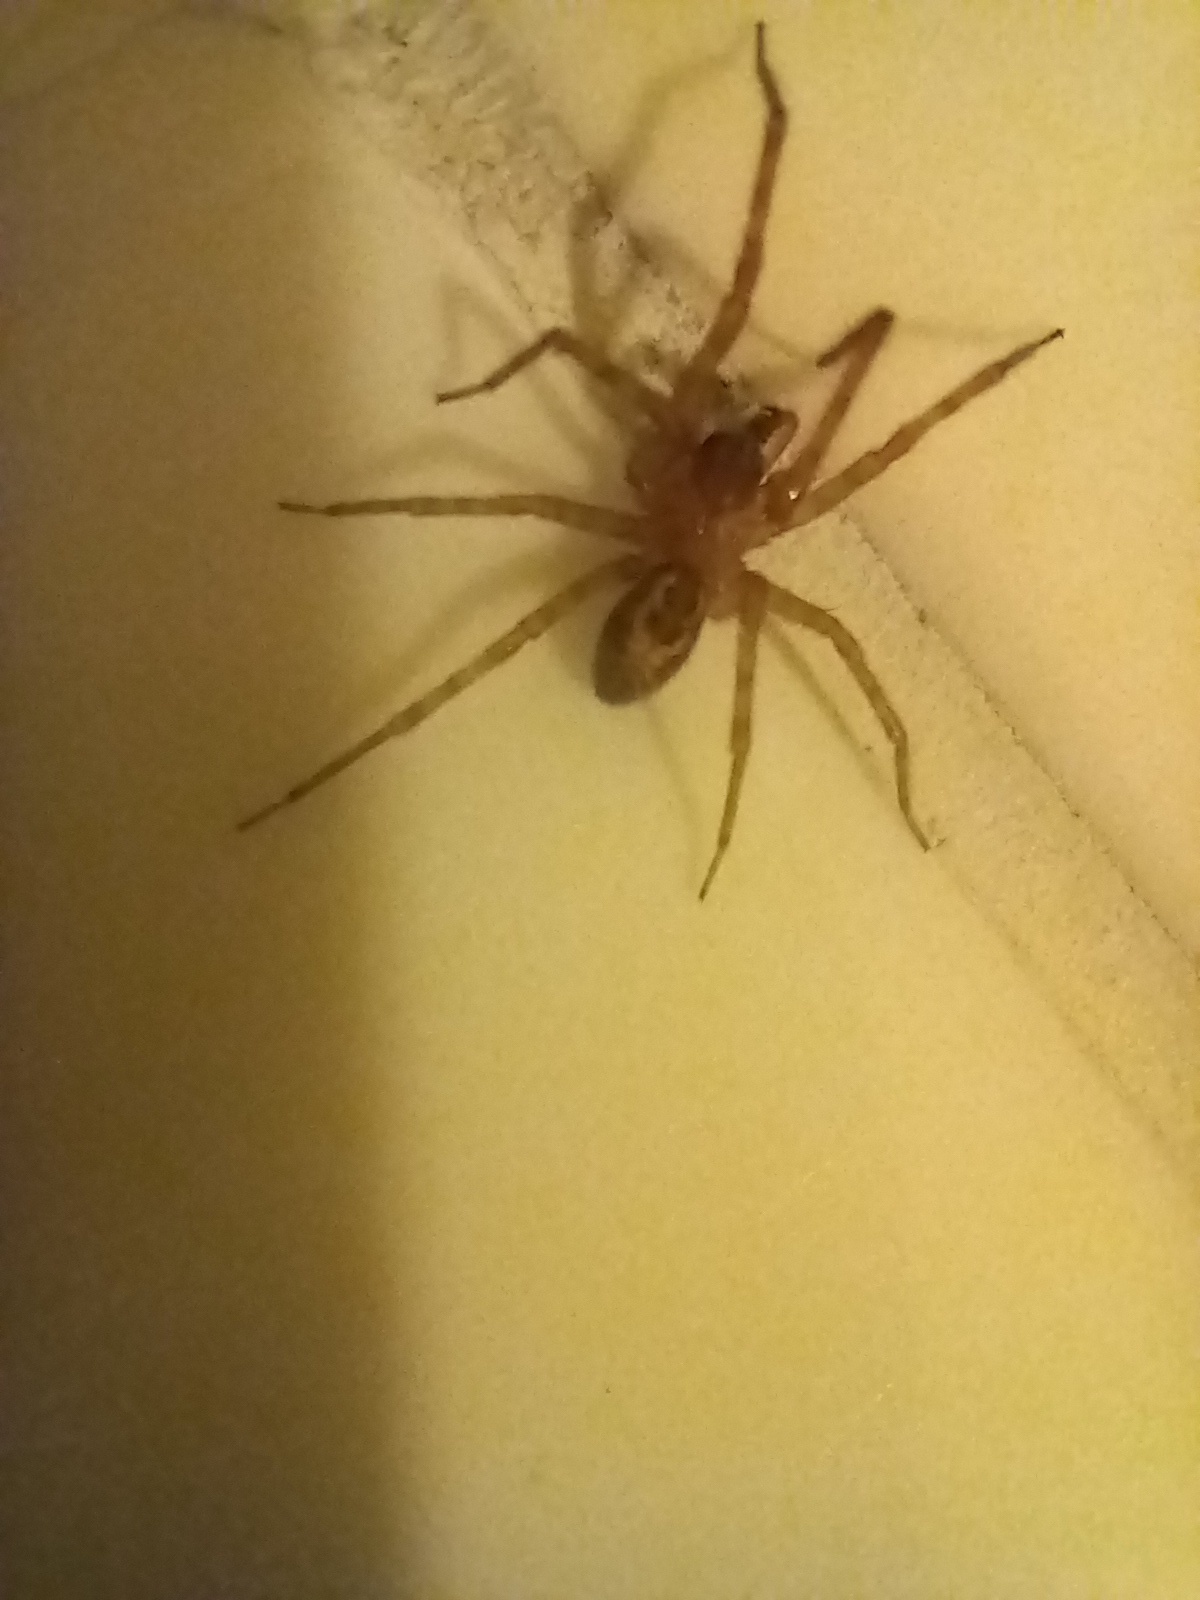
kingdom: Animalia
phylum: Arthropoda
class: Arachnida
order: Araneae
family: Amaurobiidae
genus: Amaurobius
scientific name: Amaurobius similis
